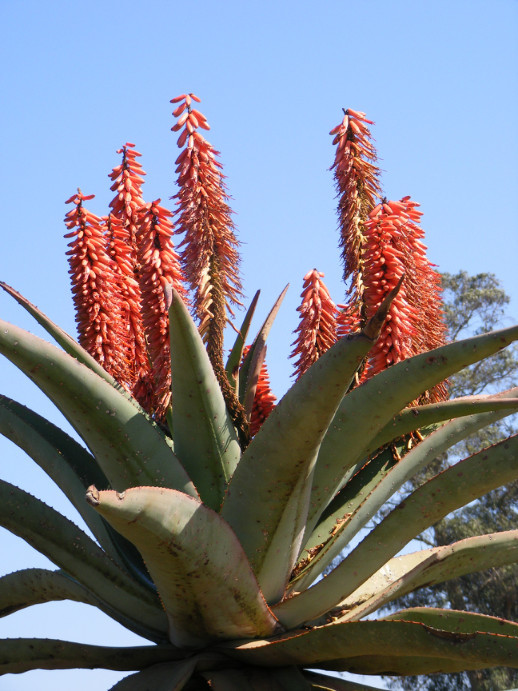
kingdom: Plantae
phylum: Tracheophyta
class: Liliopsida
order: Asparagales
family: Asphodelaceae
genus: Aloe
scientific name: Aloe ferox
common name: Bitter aloe
